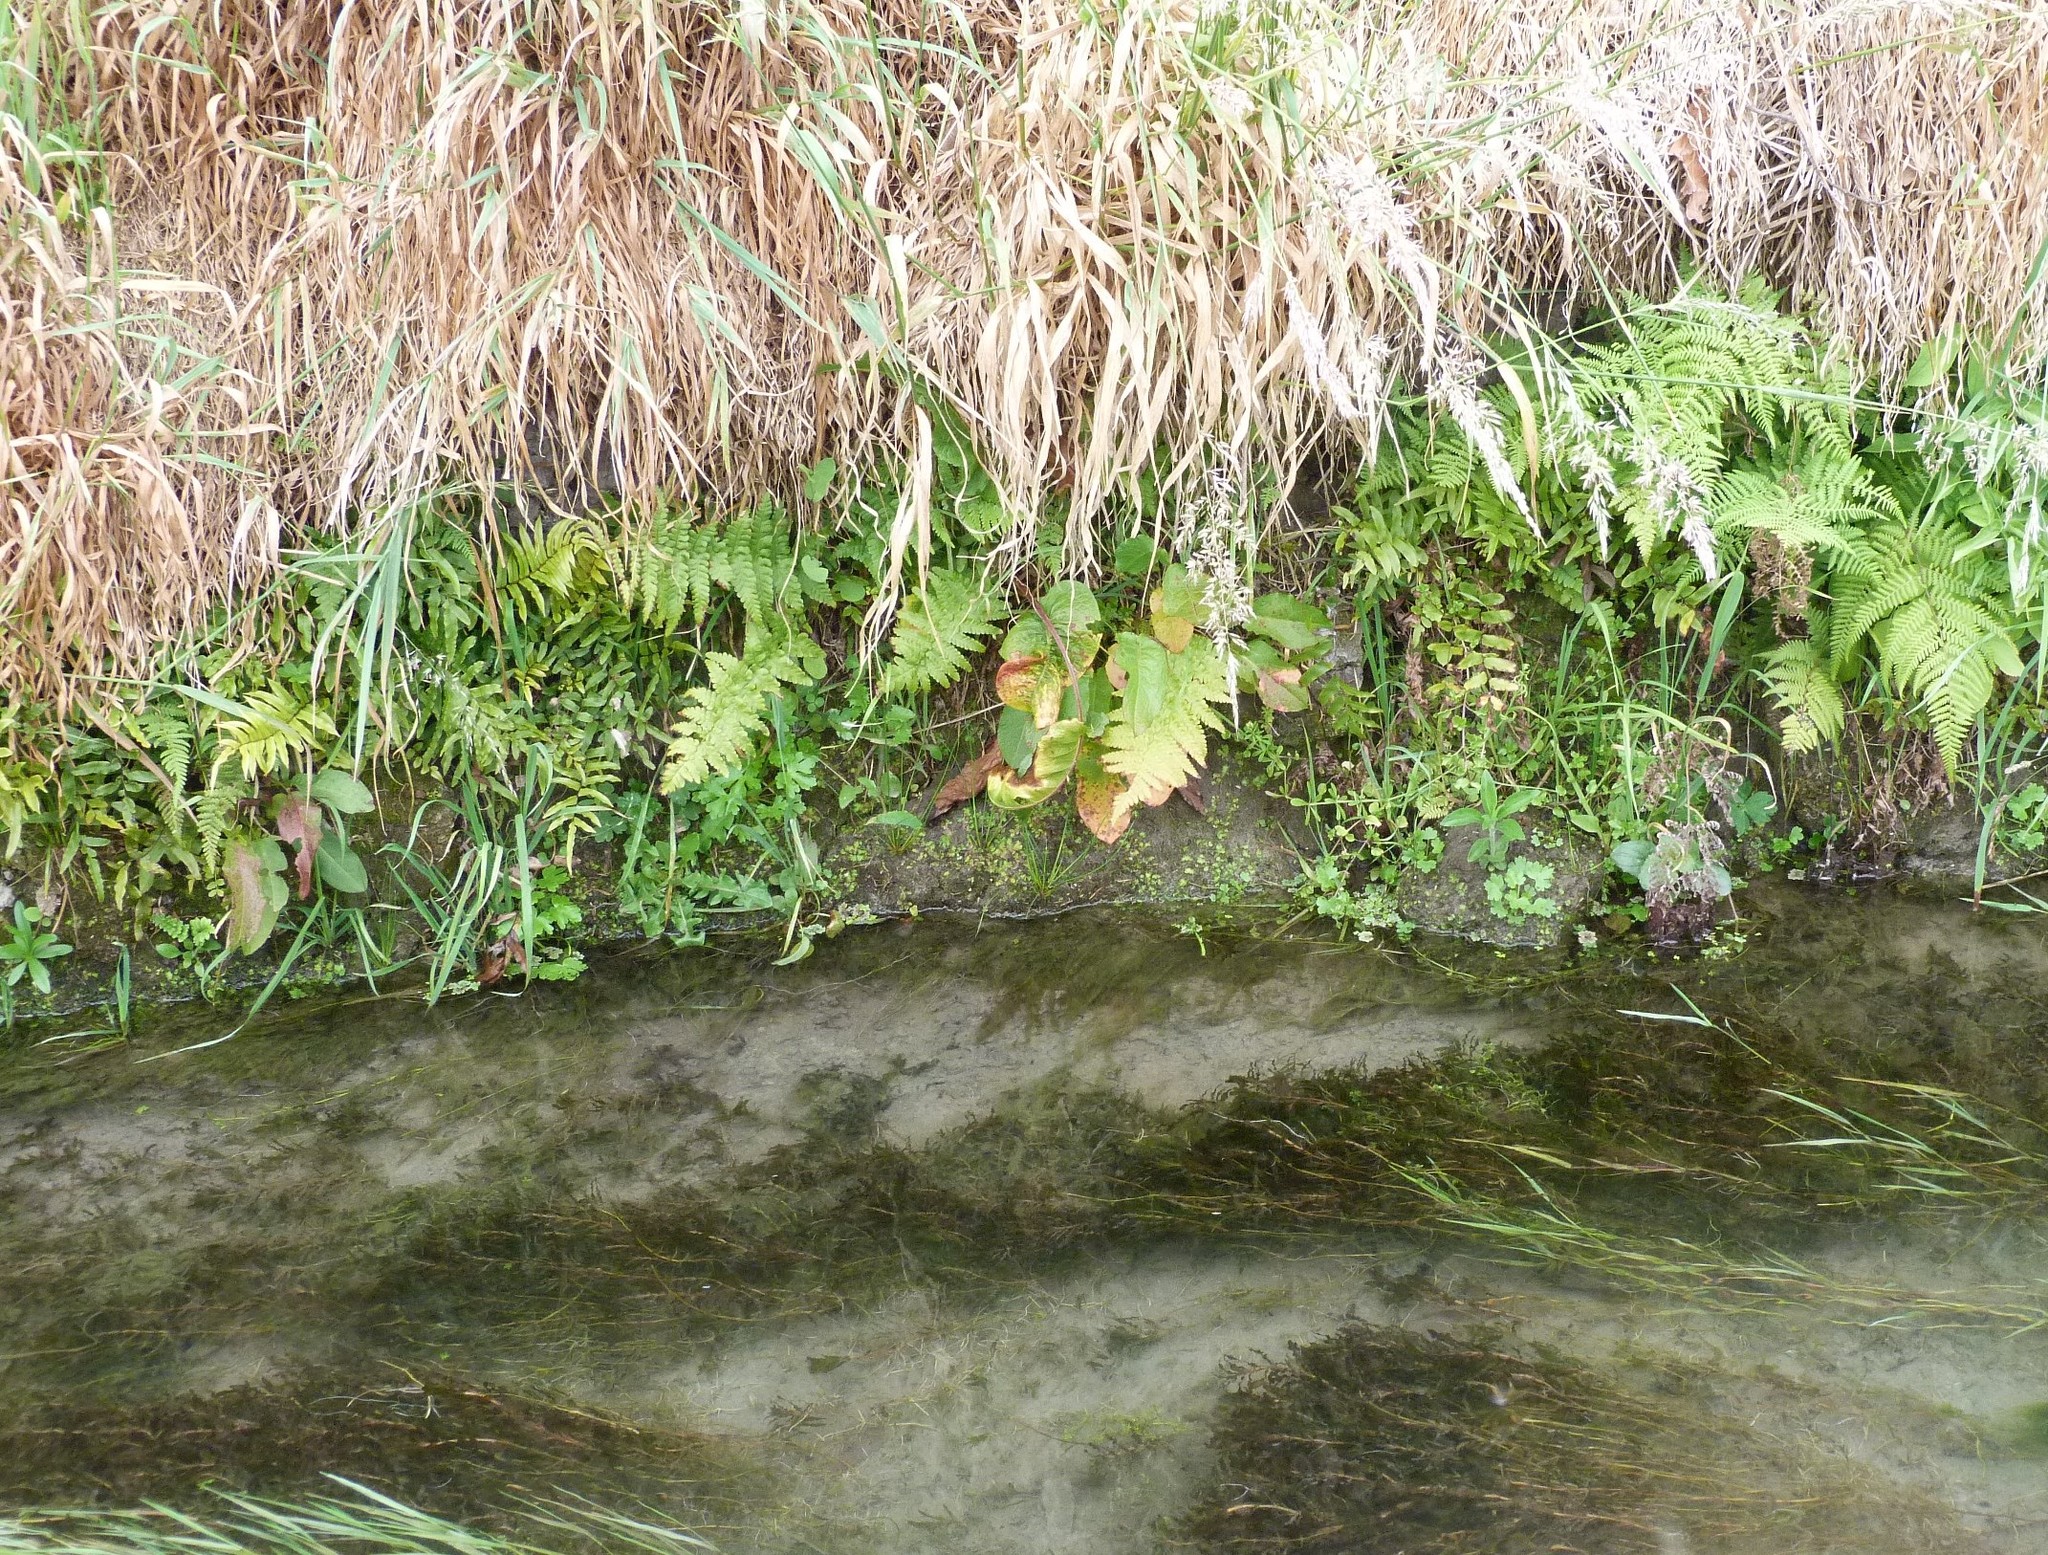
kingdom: Plantae
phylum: Tracheophyta
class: Polypodiopsida
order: Polypodiales
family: Dryopteridaceae
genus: Dryopteris
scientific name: Dryopteris filix-mas
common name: Male fern
